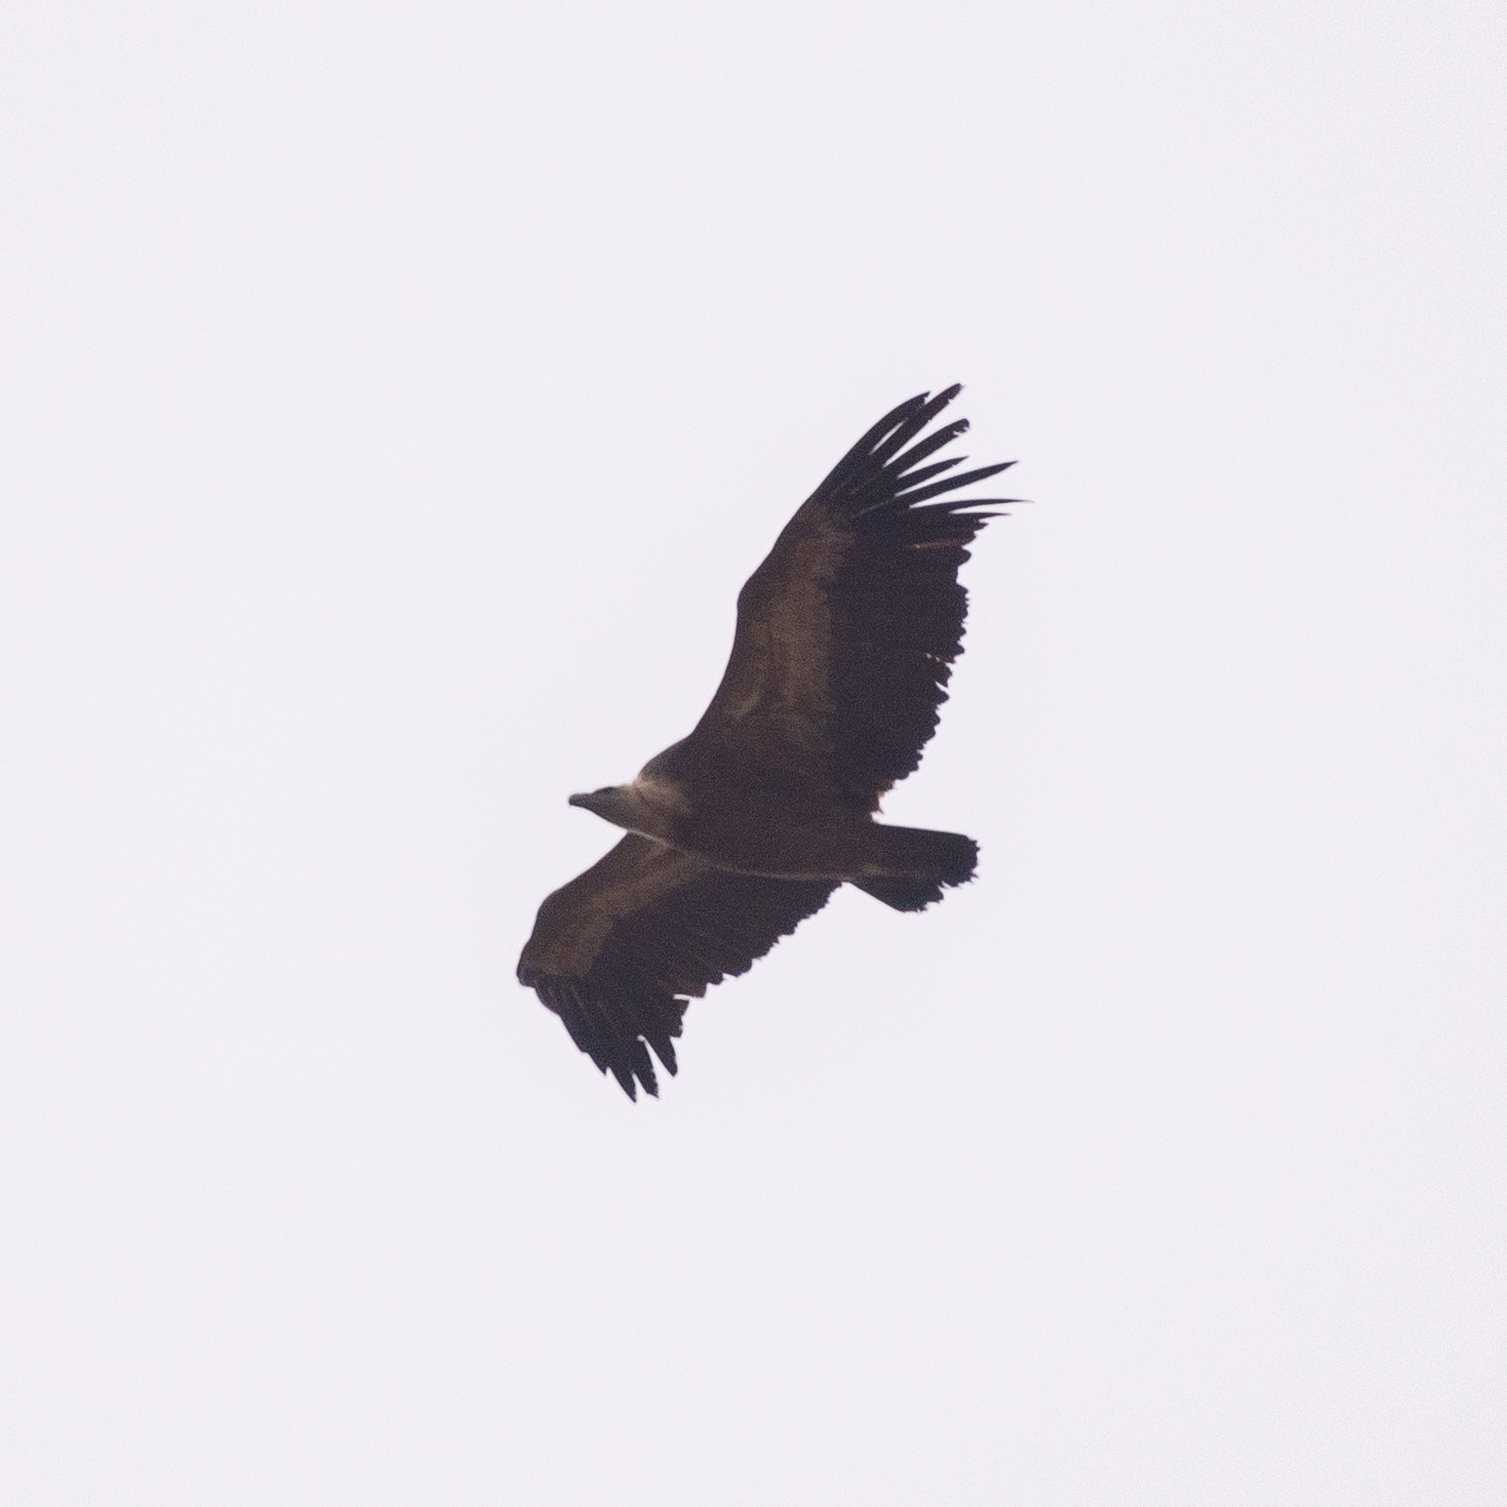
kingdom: Animalia
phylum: Chordata
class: Aves
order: Accipitriformes
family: Accipitridae
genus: Gyps
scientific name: Gyps fulvus
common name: Griffon vulture
